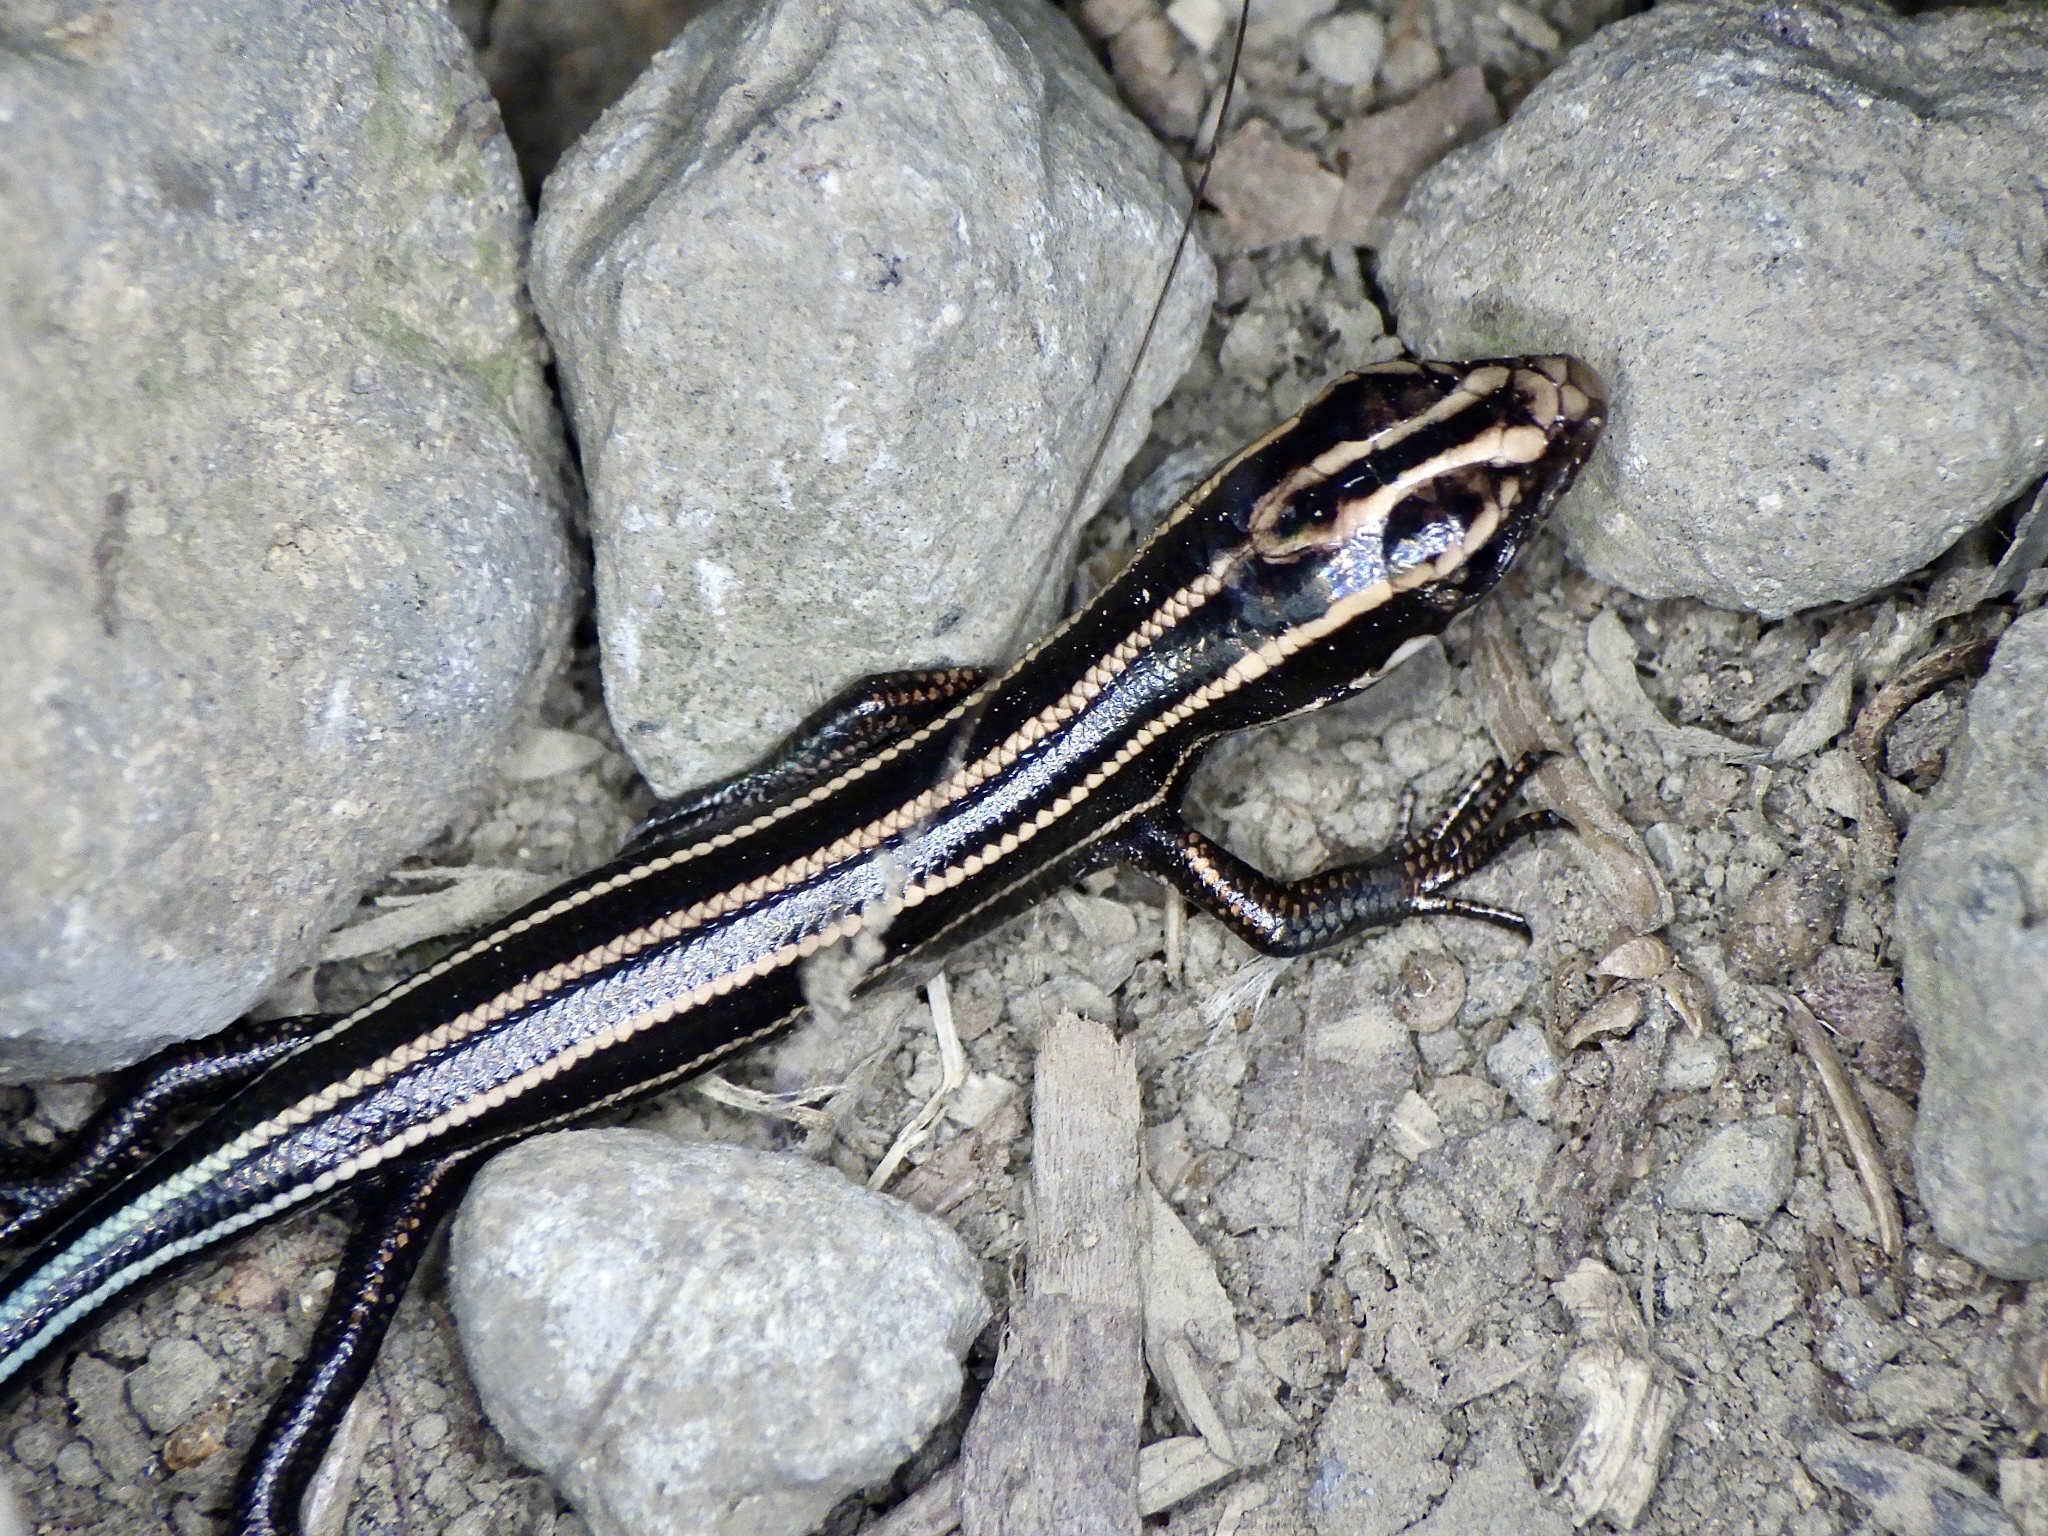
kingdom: Animalia
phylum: Chordata
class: Squamata
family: Scincidae
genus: Plestiodon
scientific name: Plestiodon japonicus
